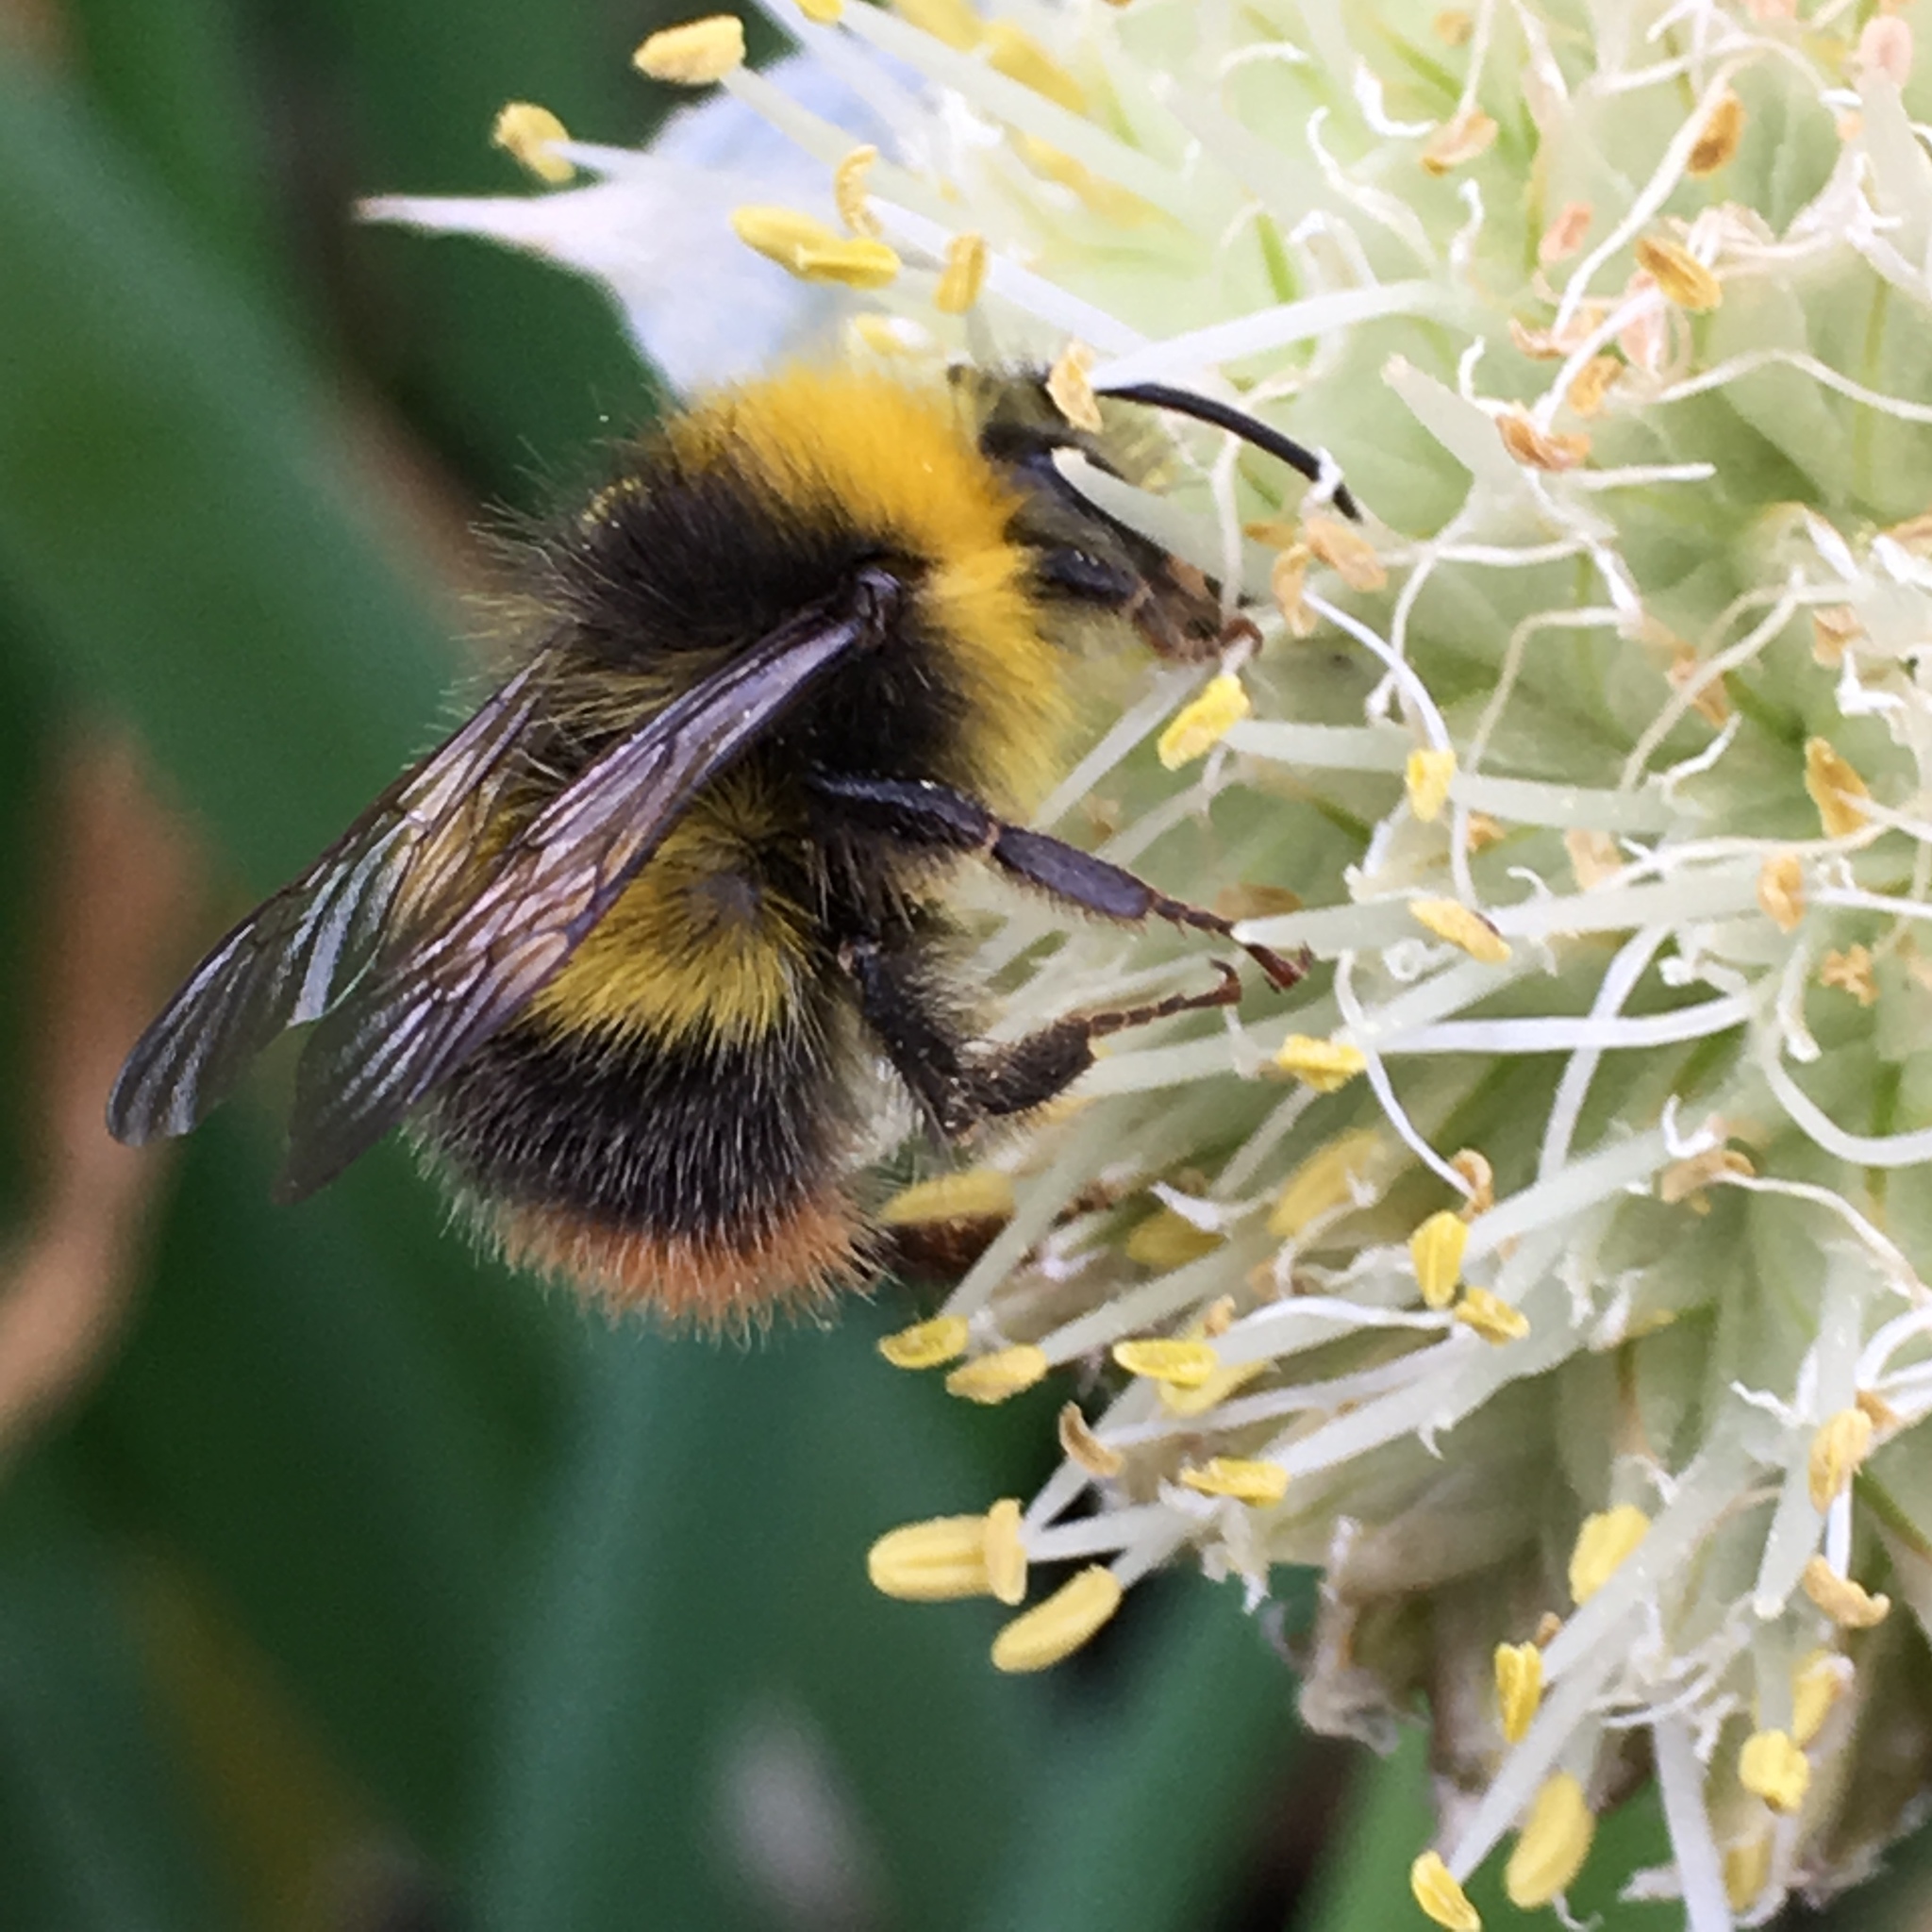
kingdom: Animalia
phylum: Arthropoda
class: Insecta
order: Hymenoptera
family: Apidae
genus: Bombus
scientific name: Bombus pratorum
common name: Early humble-bee
